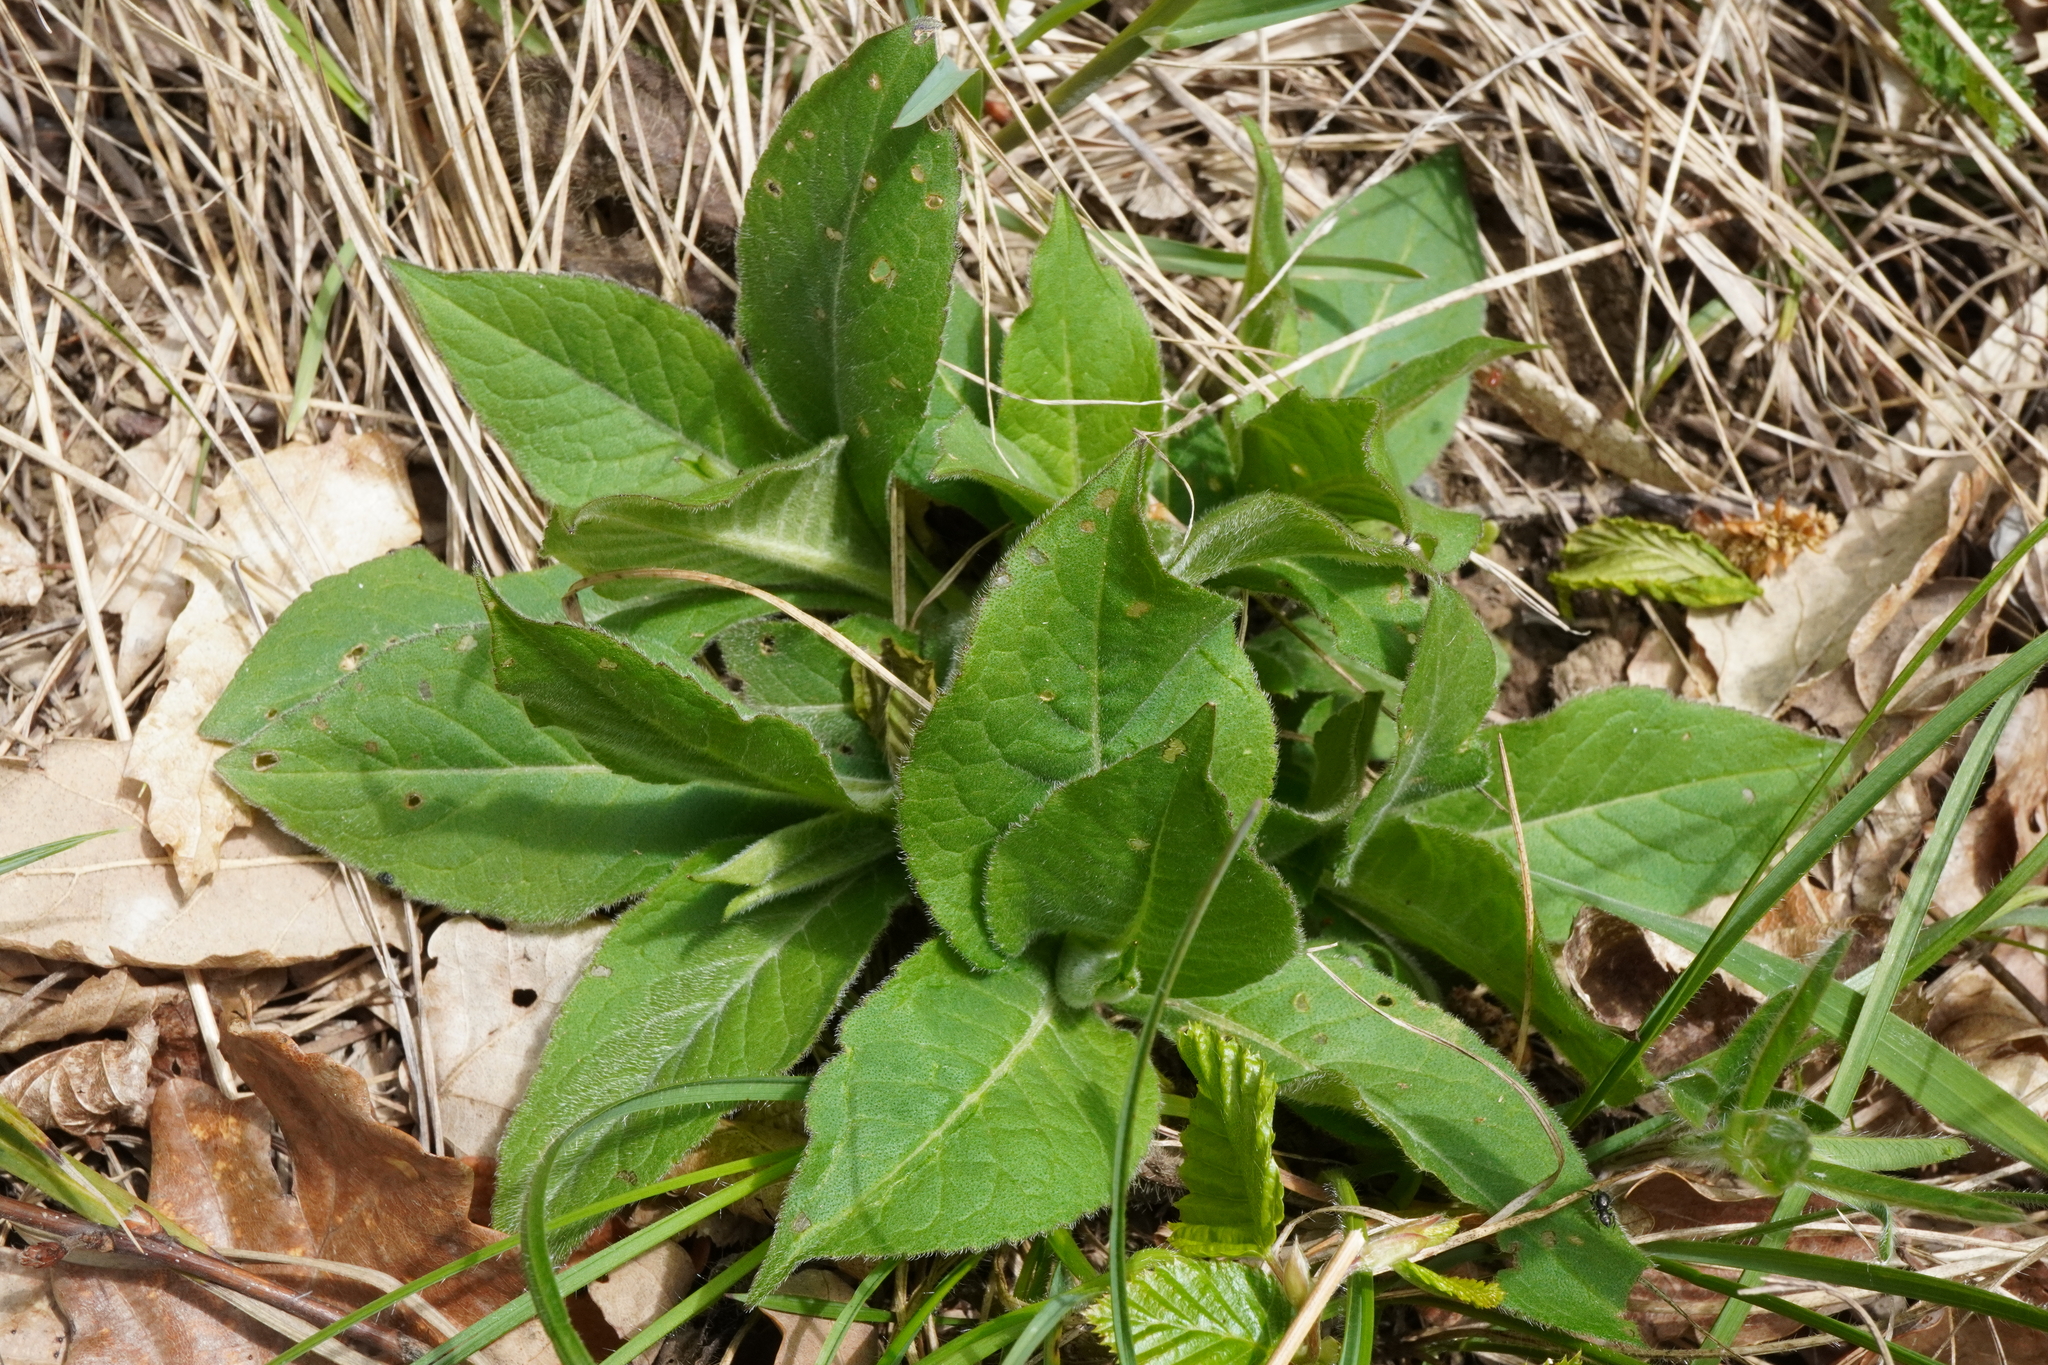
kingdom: Plantae
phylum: Tracheophyta
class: Magnoliopsida
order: Dipsacales
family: Caprifoliaceae
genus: Knautia
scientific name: Knautia drymeia
